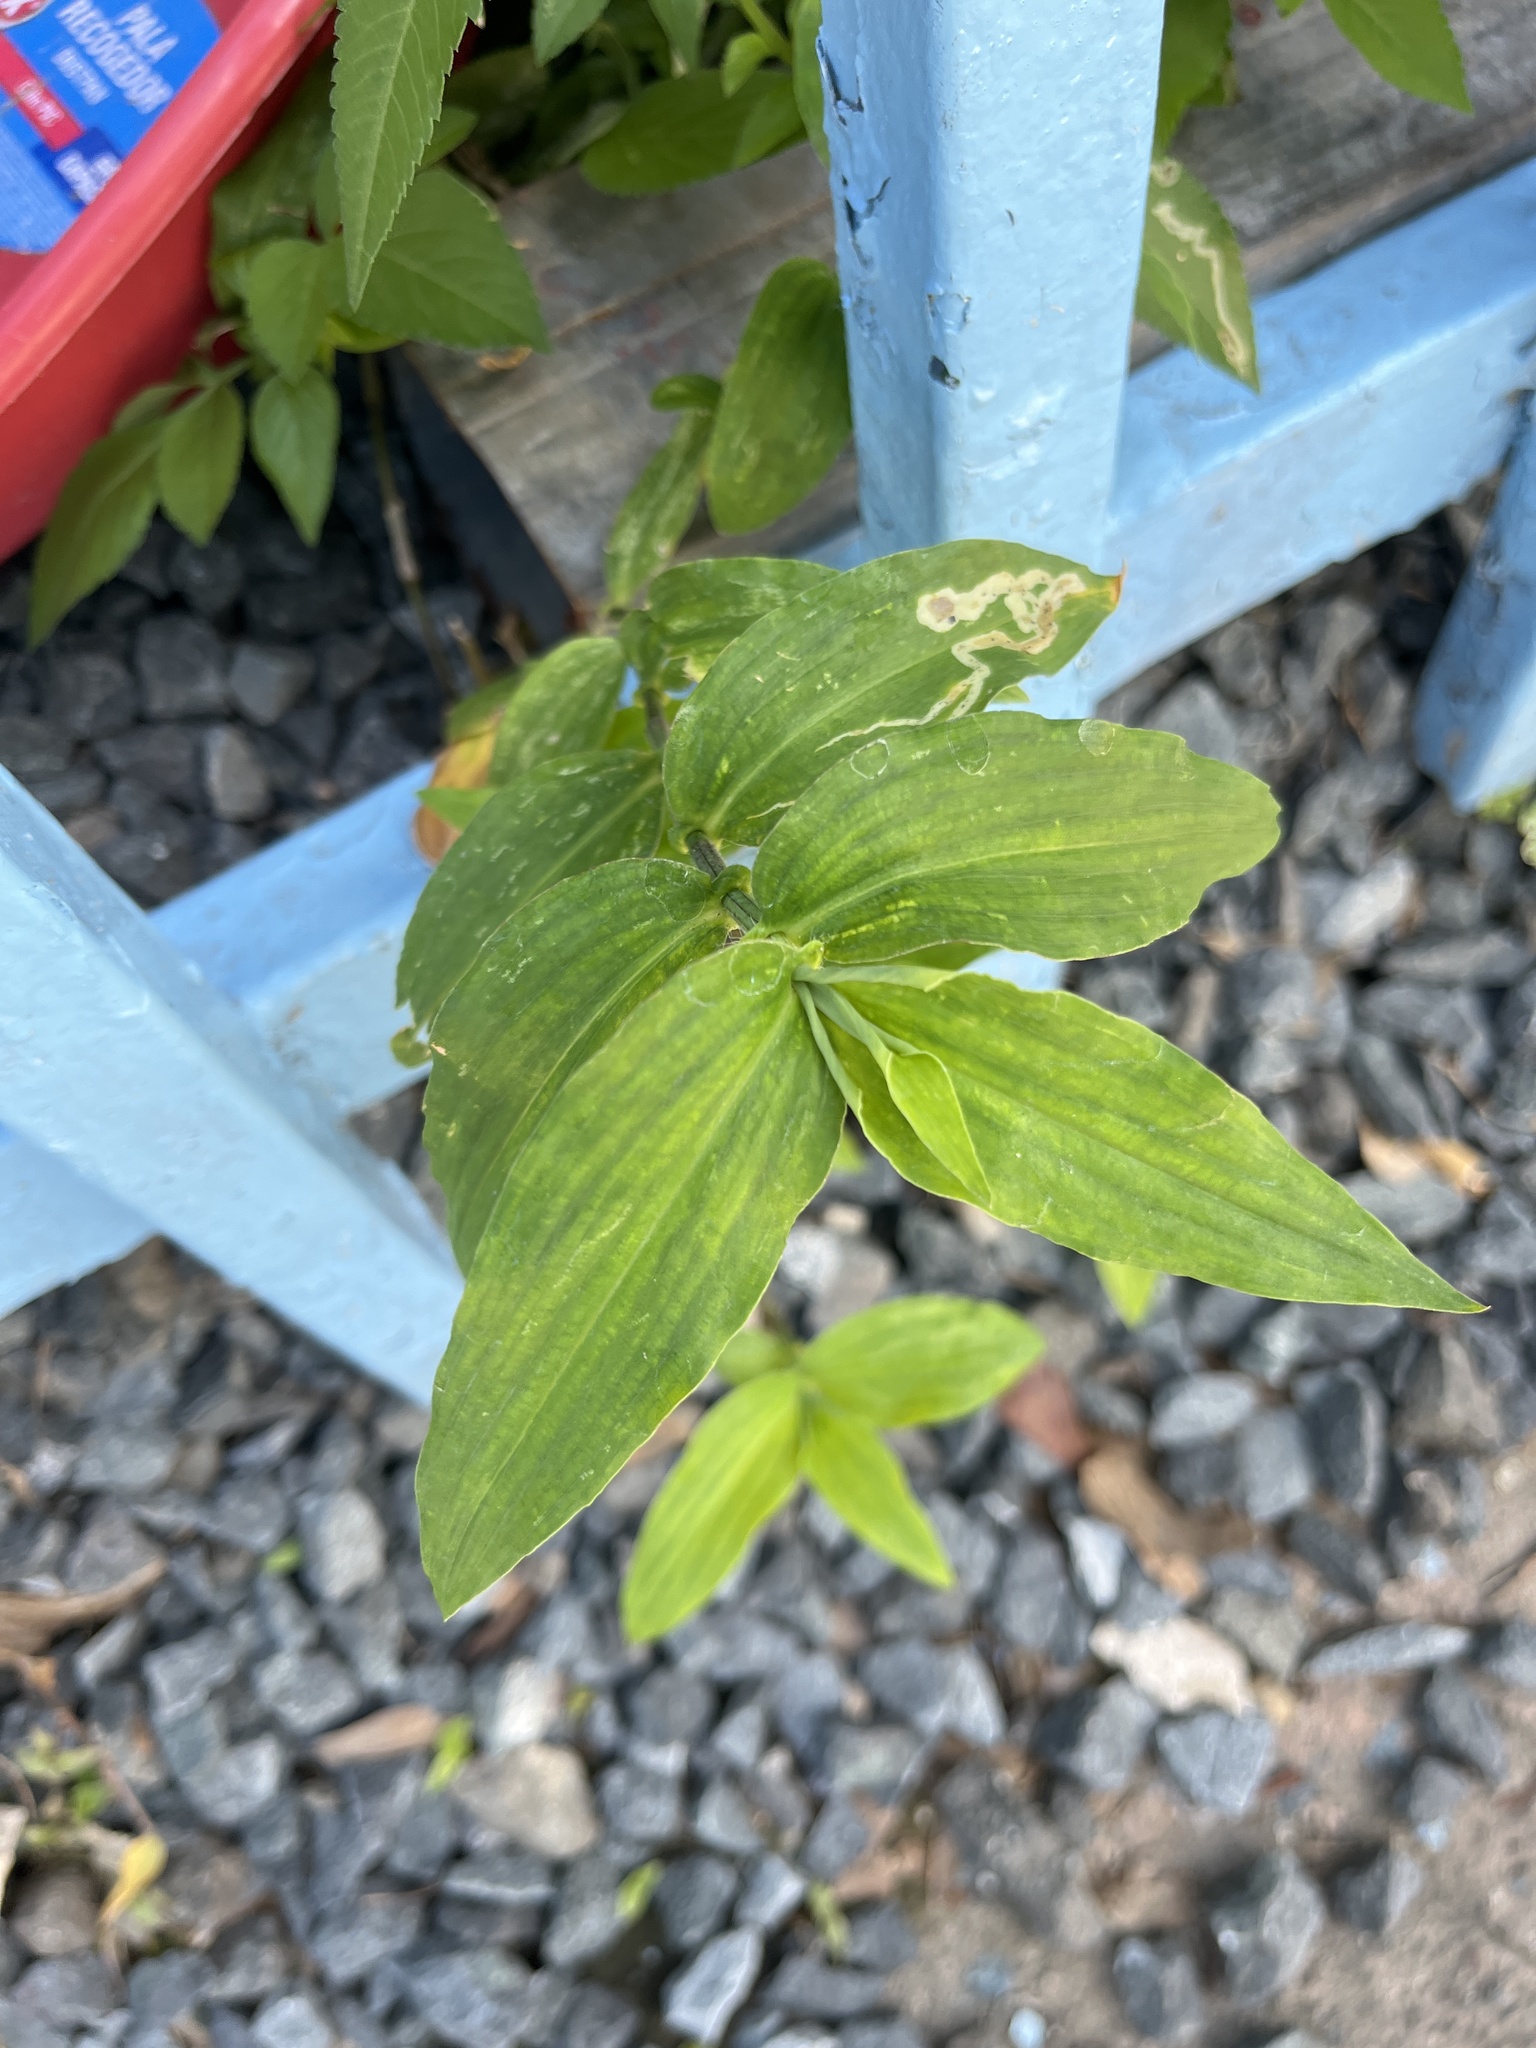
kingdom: Plantae
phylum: Tracheophyta
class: Liliopsida
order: Commelinales
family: Commelinaceae
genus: Commelina
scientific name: Commelina erecta
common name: Blousel blommetjie
